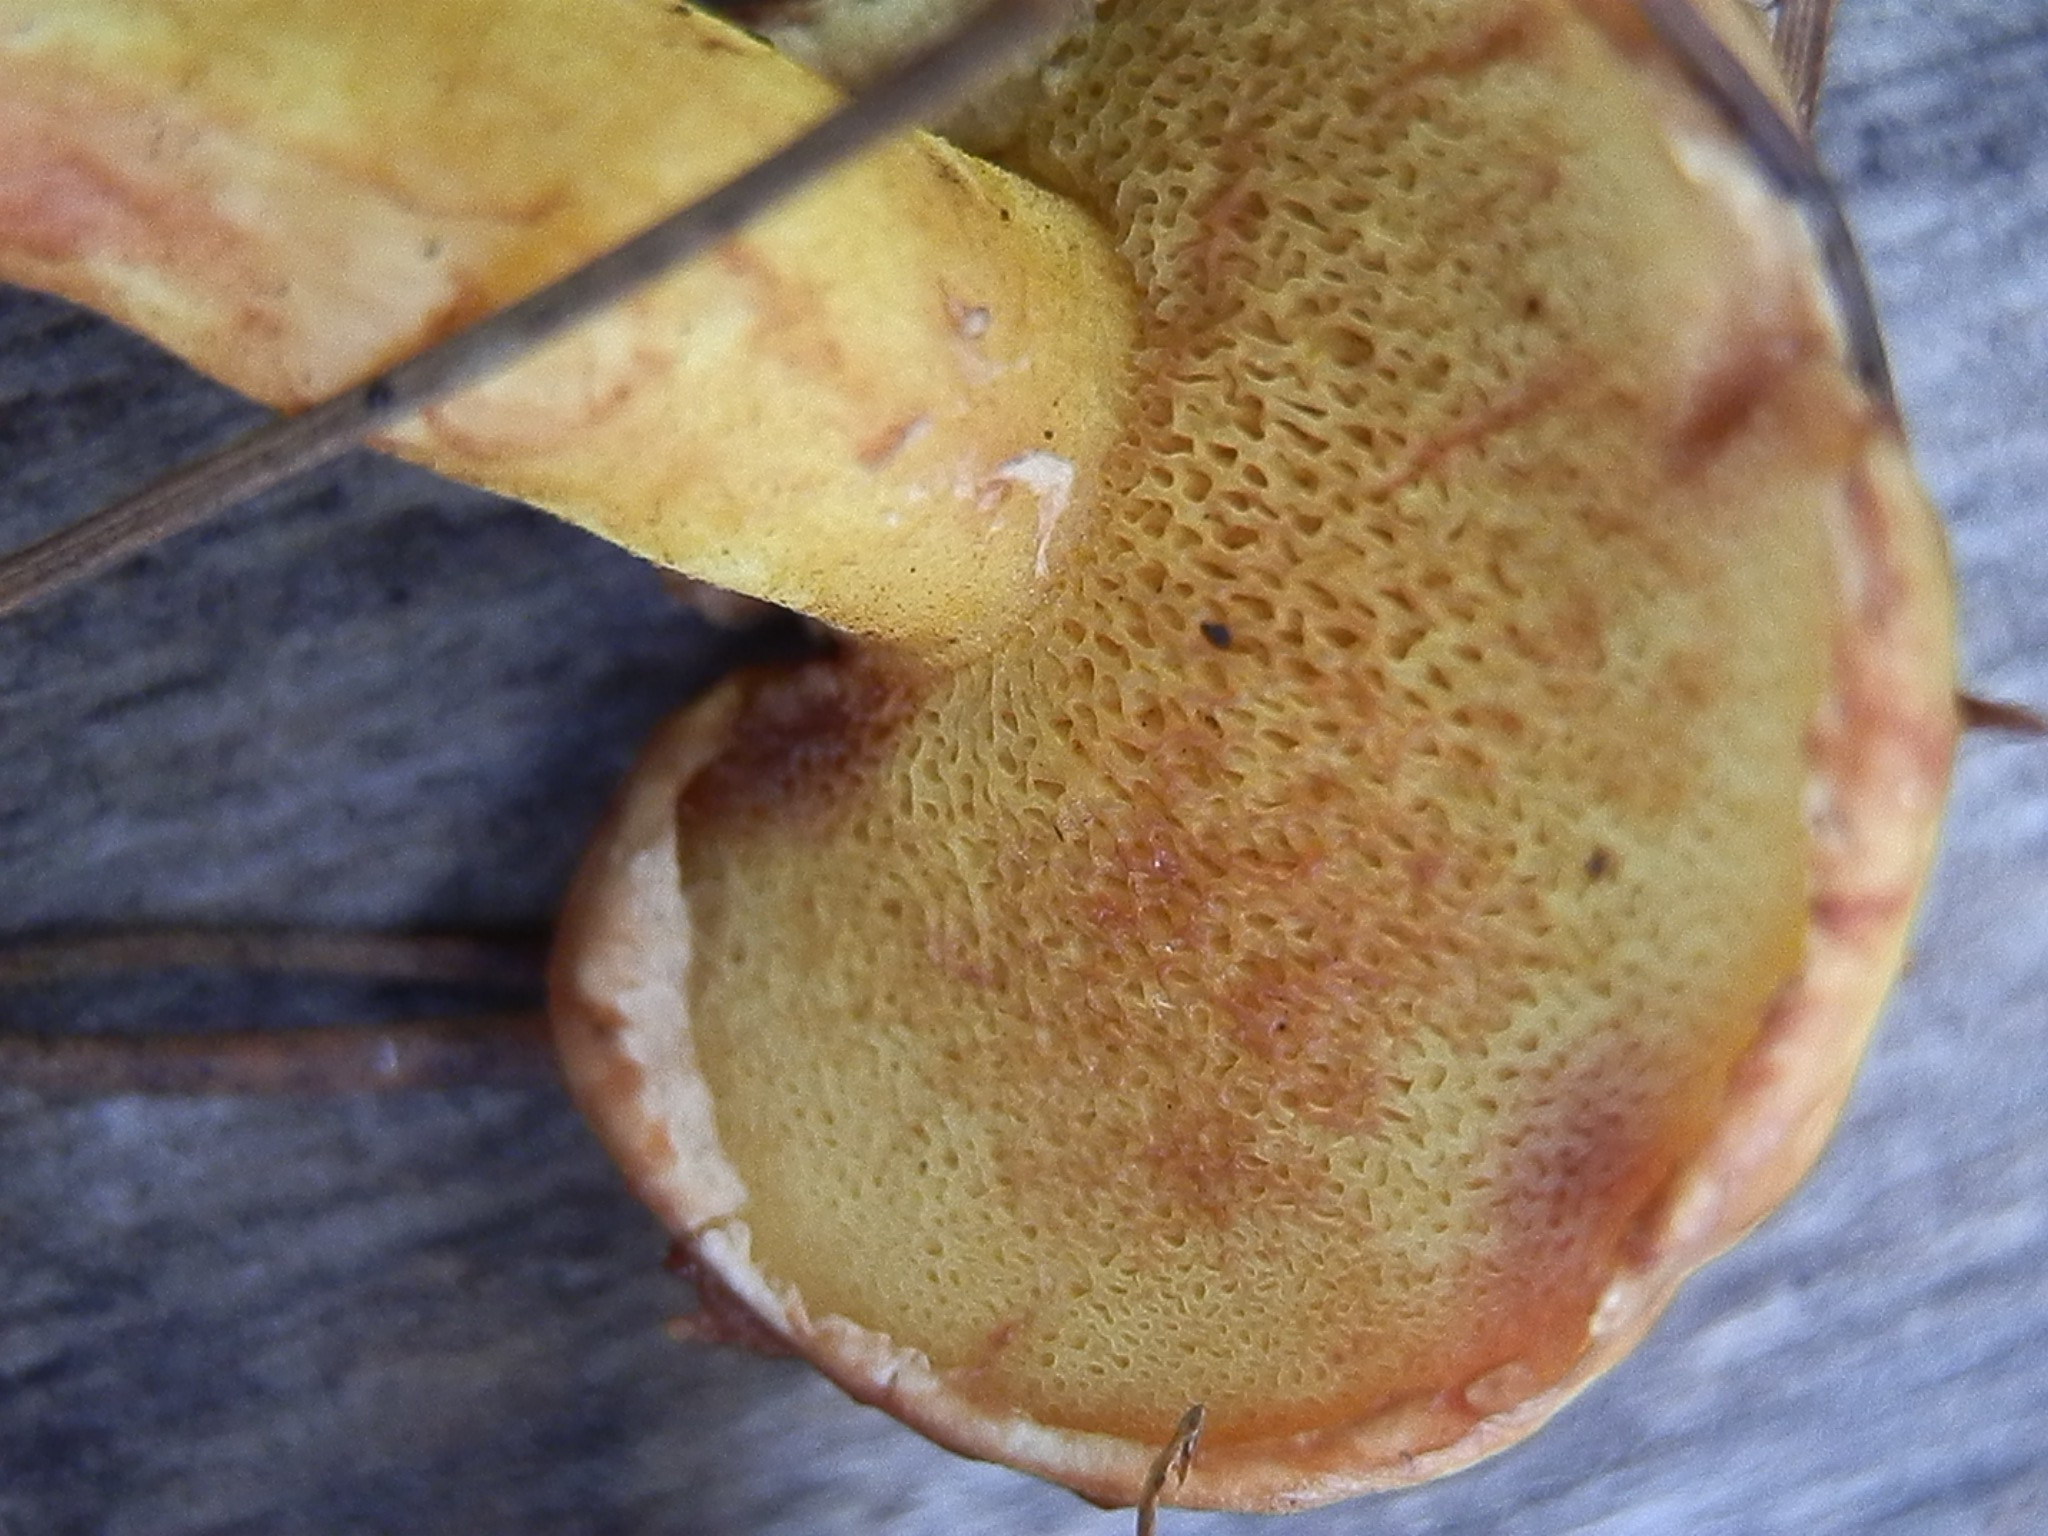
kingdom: Fungi
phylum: Basidiomycota
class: Agaricomycetes
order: Boletales
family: Suillaceae
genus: Suillus
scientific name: Suillus americanus
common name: Chicken fat mushroom
